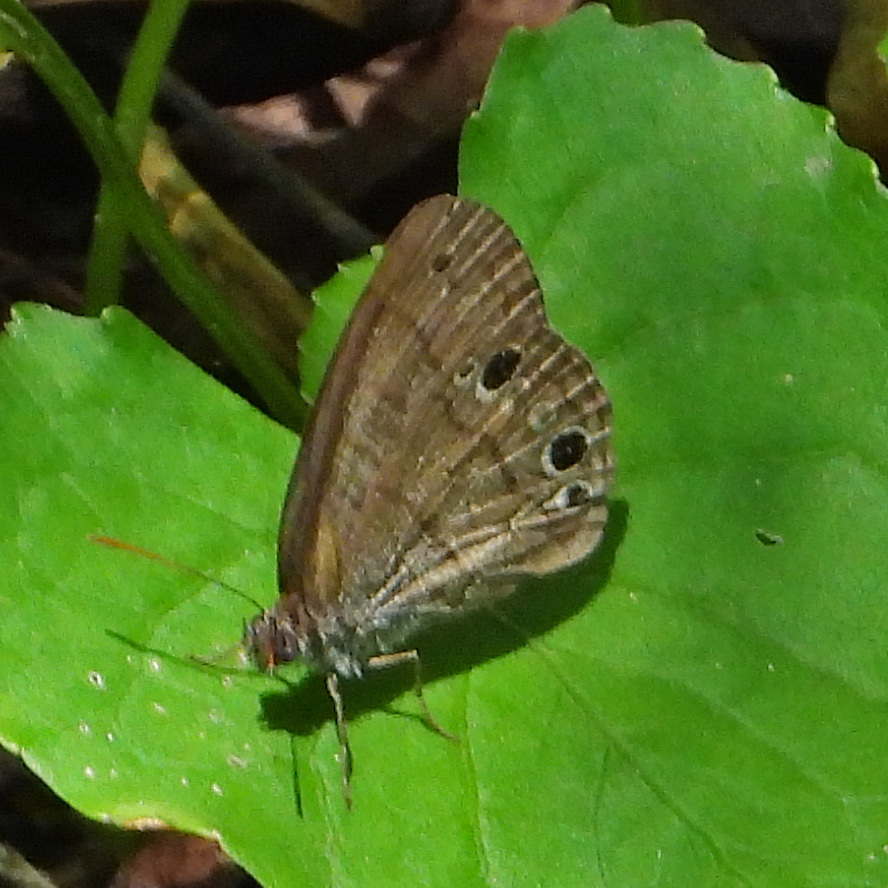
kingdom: Animalia
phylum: Arthropoda
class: Insecta
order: Lepidoptera
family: Nymphalidae
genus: Hermeuptychia
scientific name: Hermeuptychia hermes
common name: Hermes satyr
